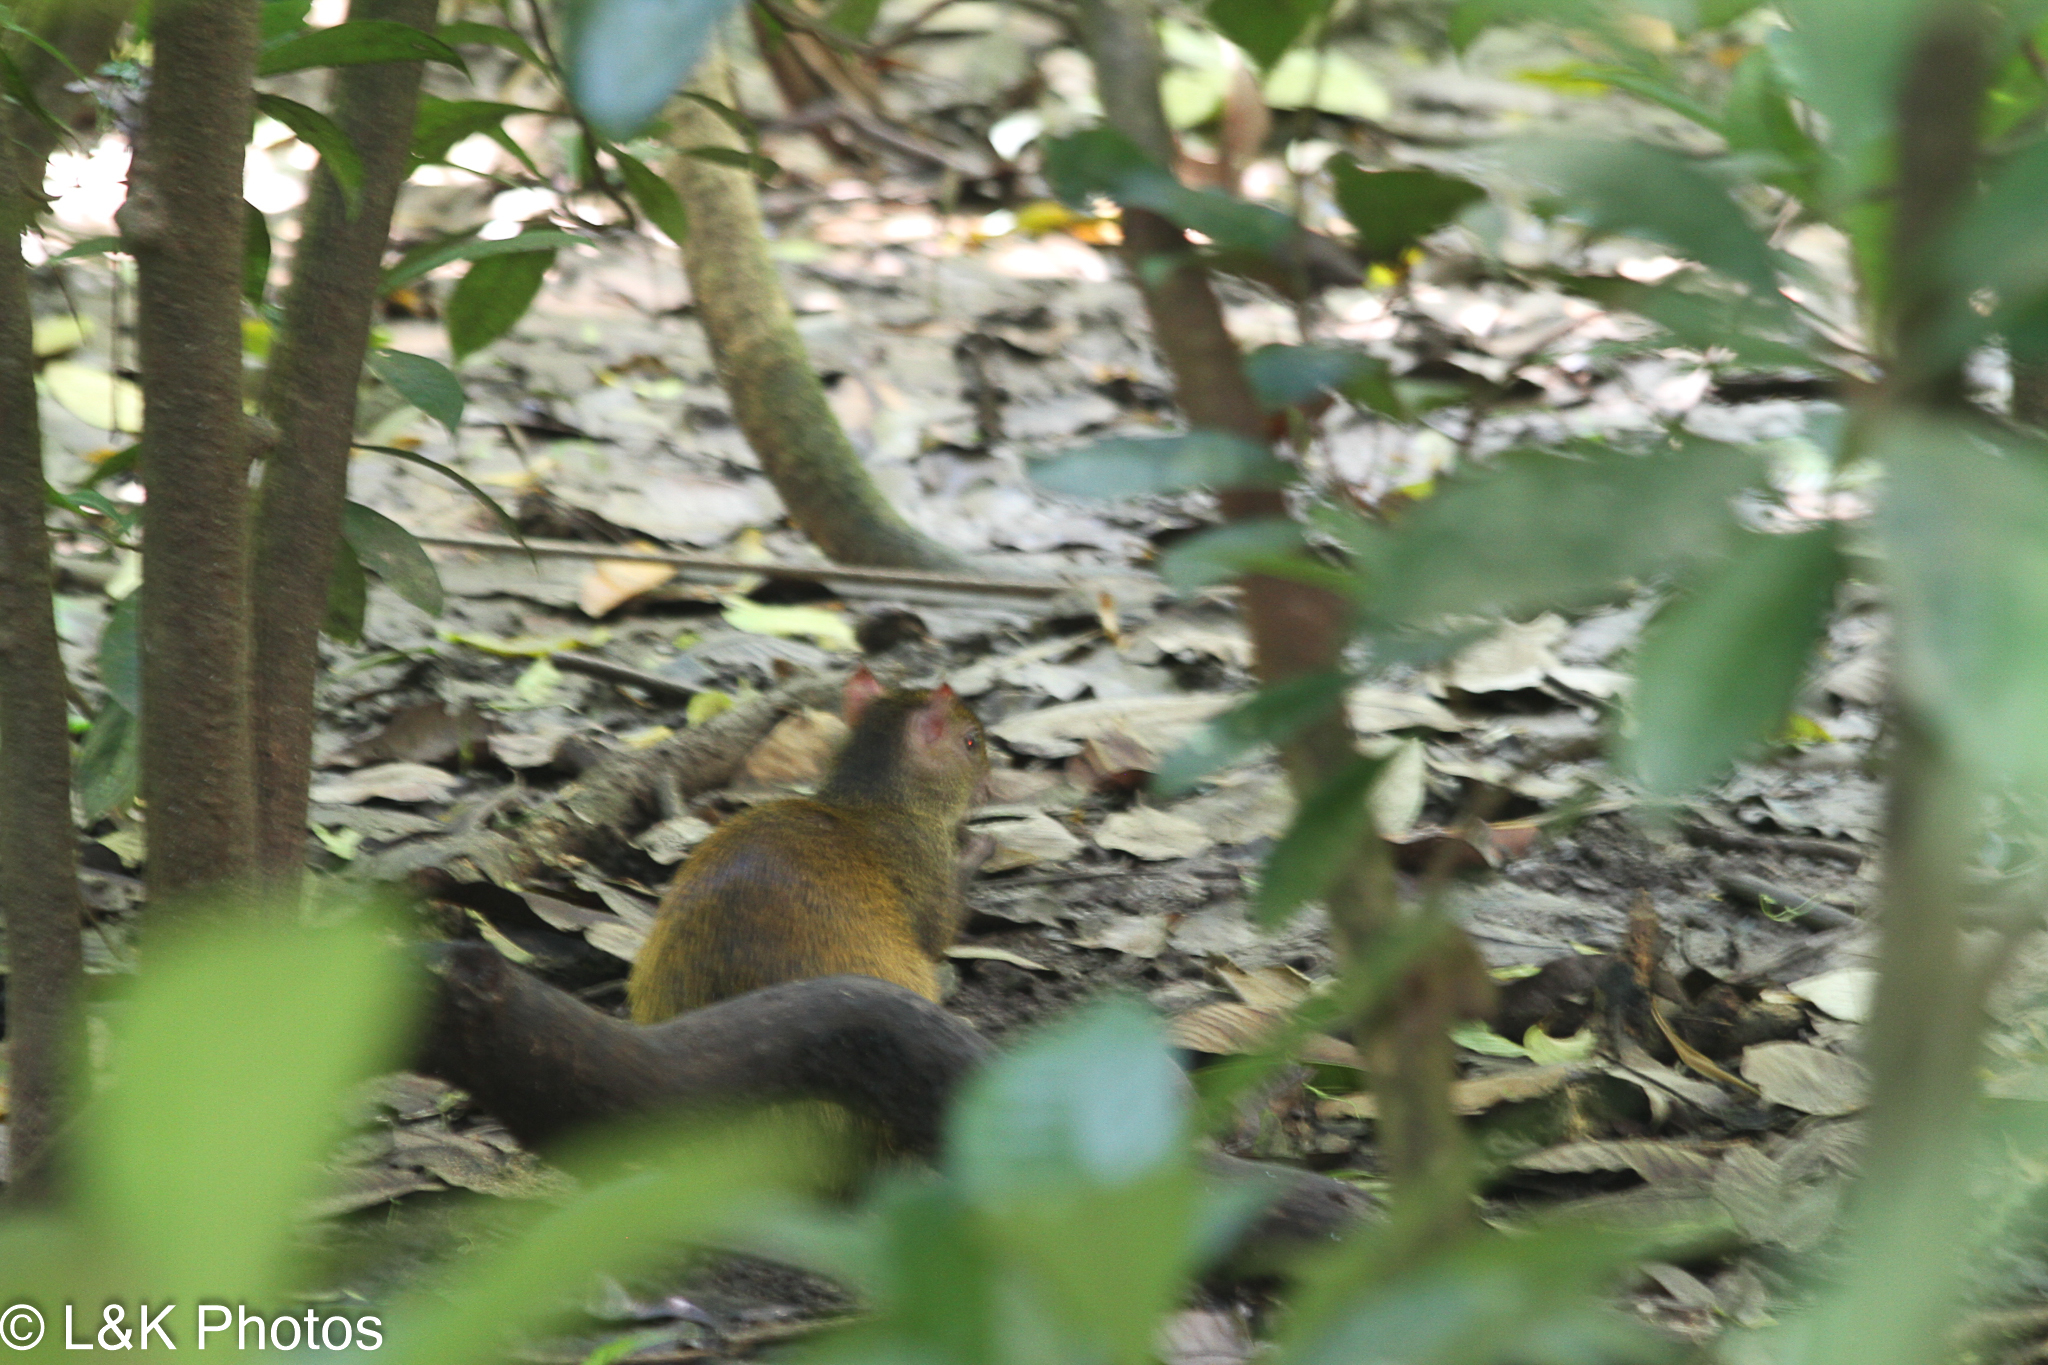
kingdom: Animalia
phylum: Chordata
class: Mammalia
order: Rodentia
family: Dasyproctidae
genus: Dasyprocta
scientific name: Dasyprocta punctata
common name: Central american agouti
